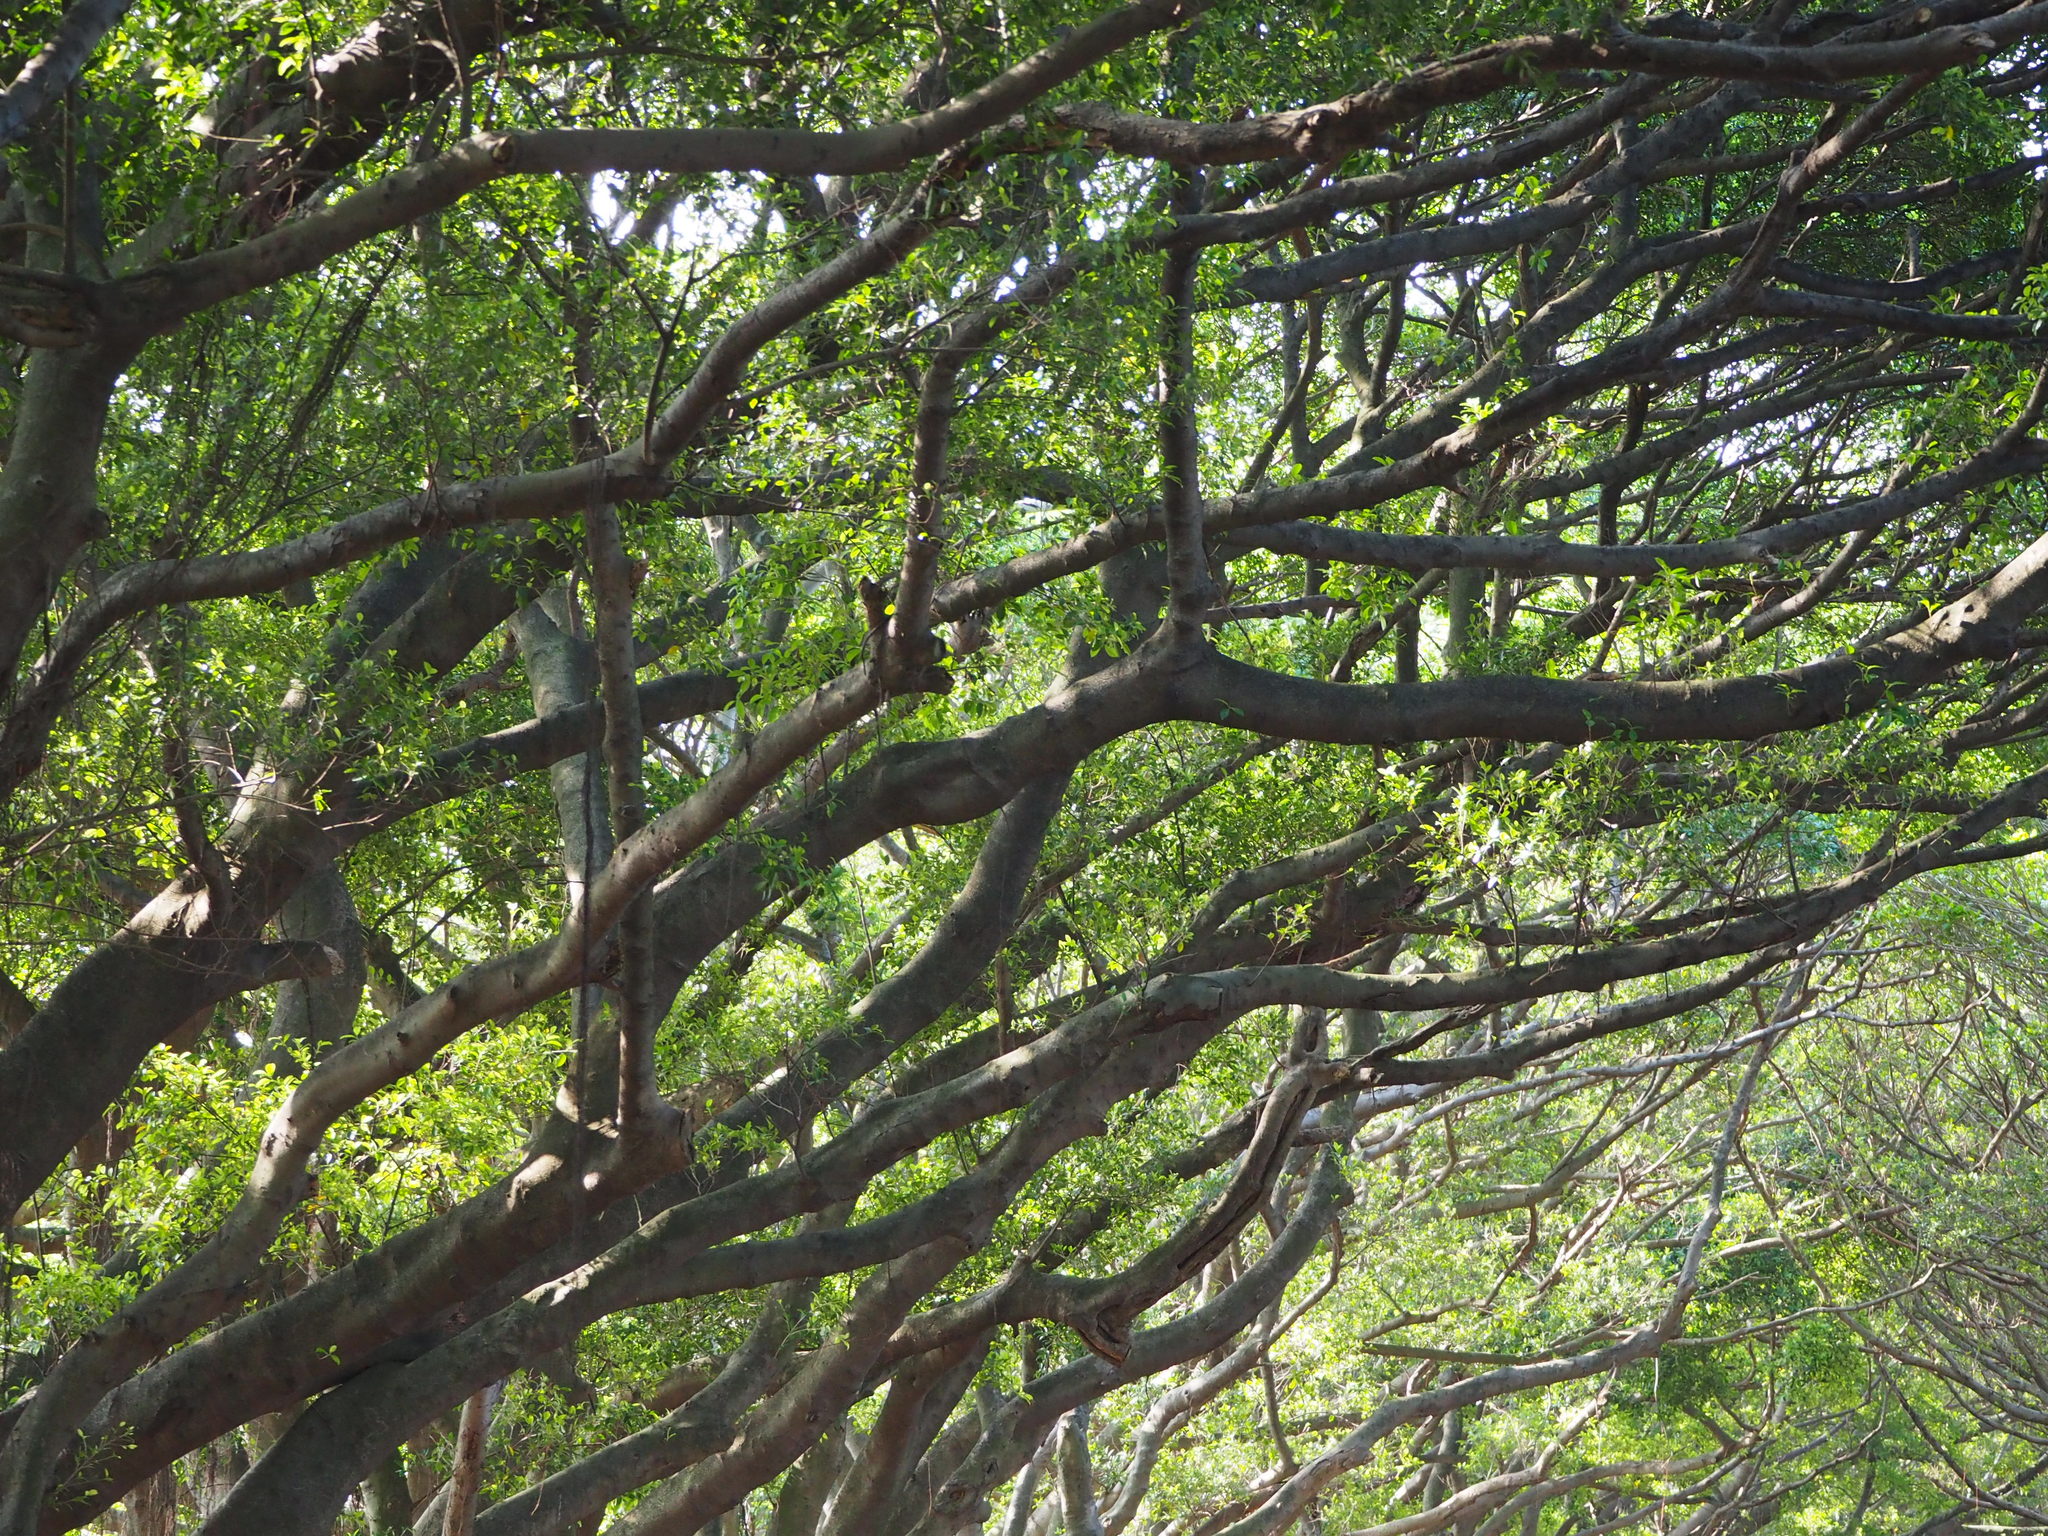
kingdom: Plantae
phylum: Tracheophyta
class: Magnoliopsida
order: Rosales
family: Moraceae
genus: Ficus
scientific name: Ficus microcarpa
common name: Chinese banyan
